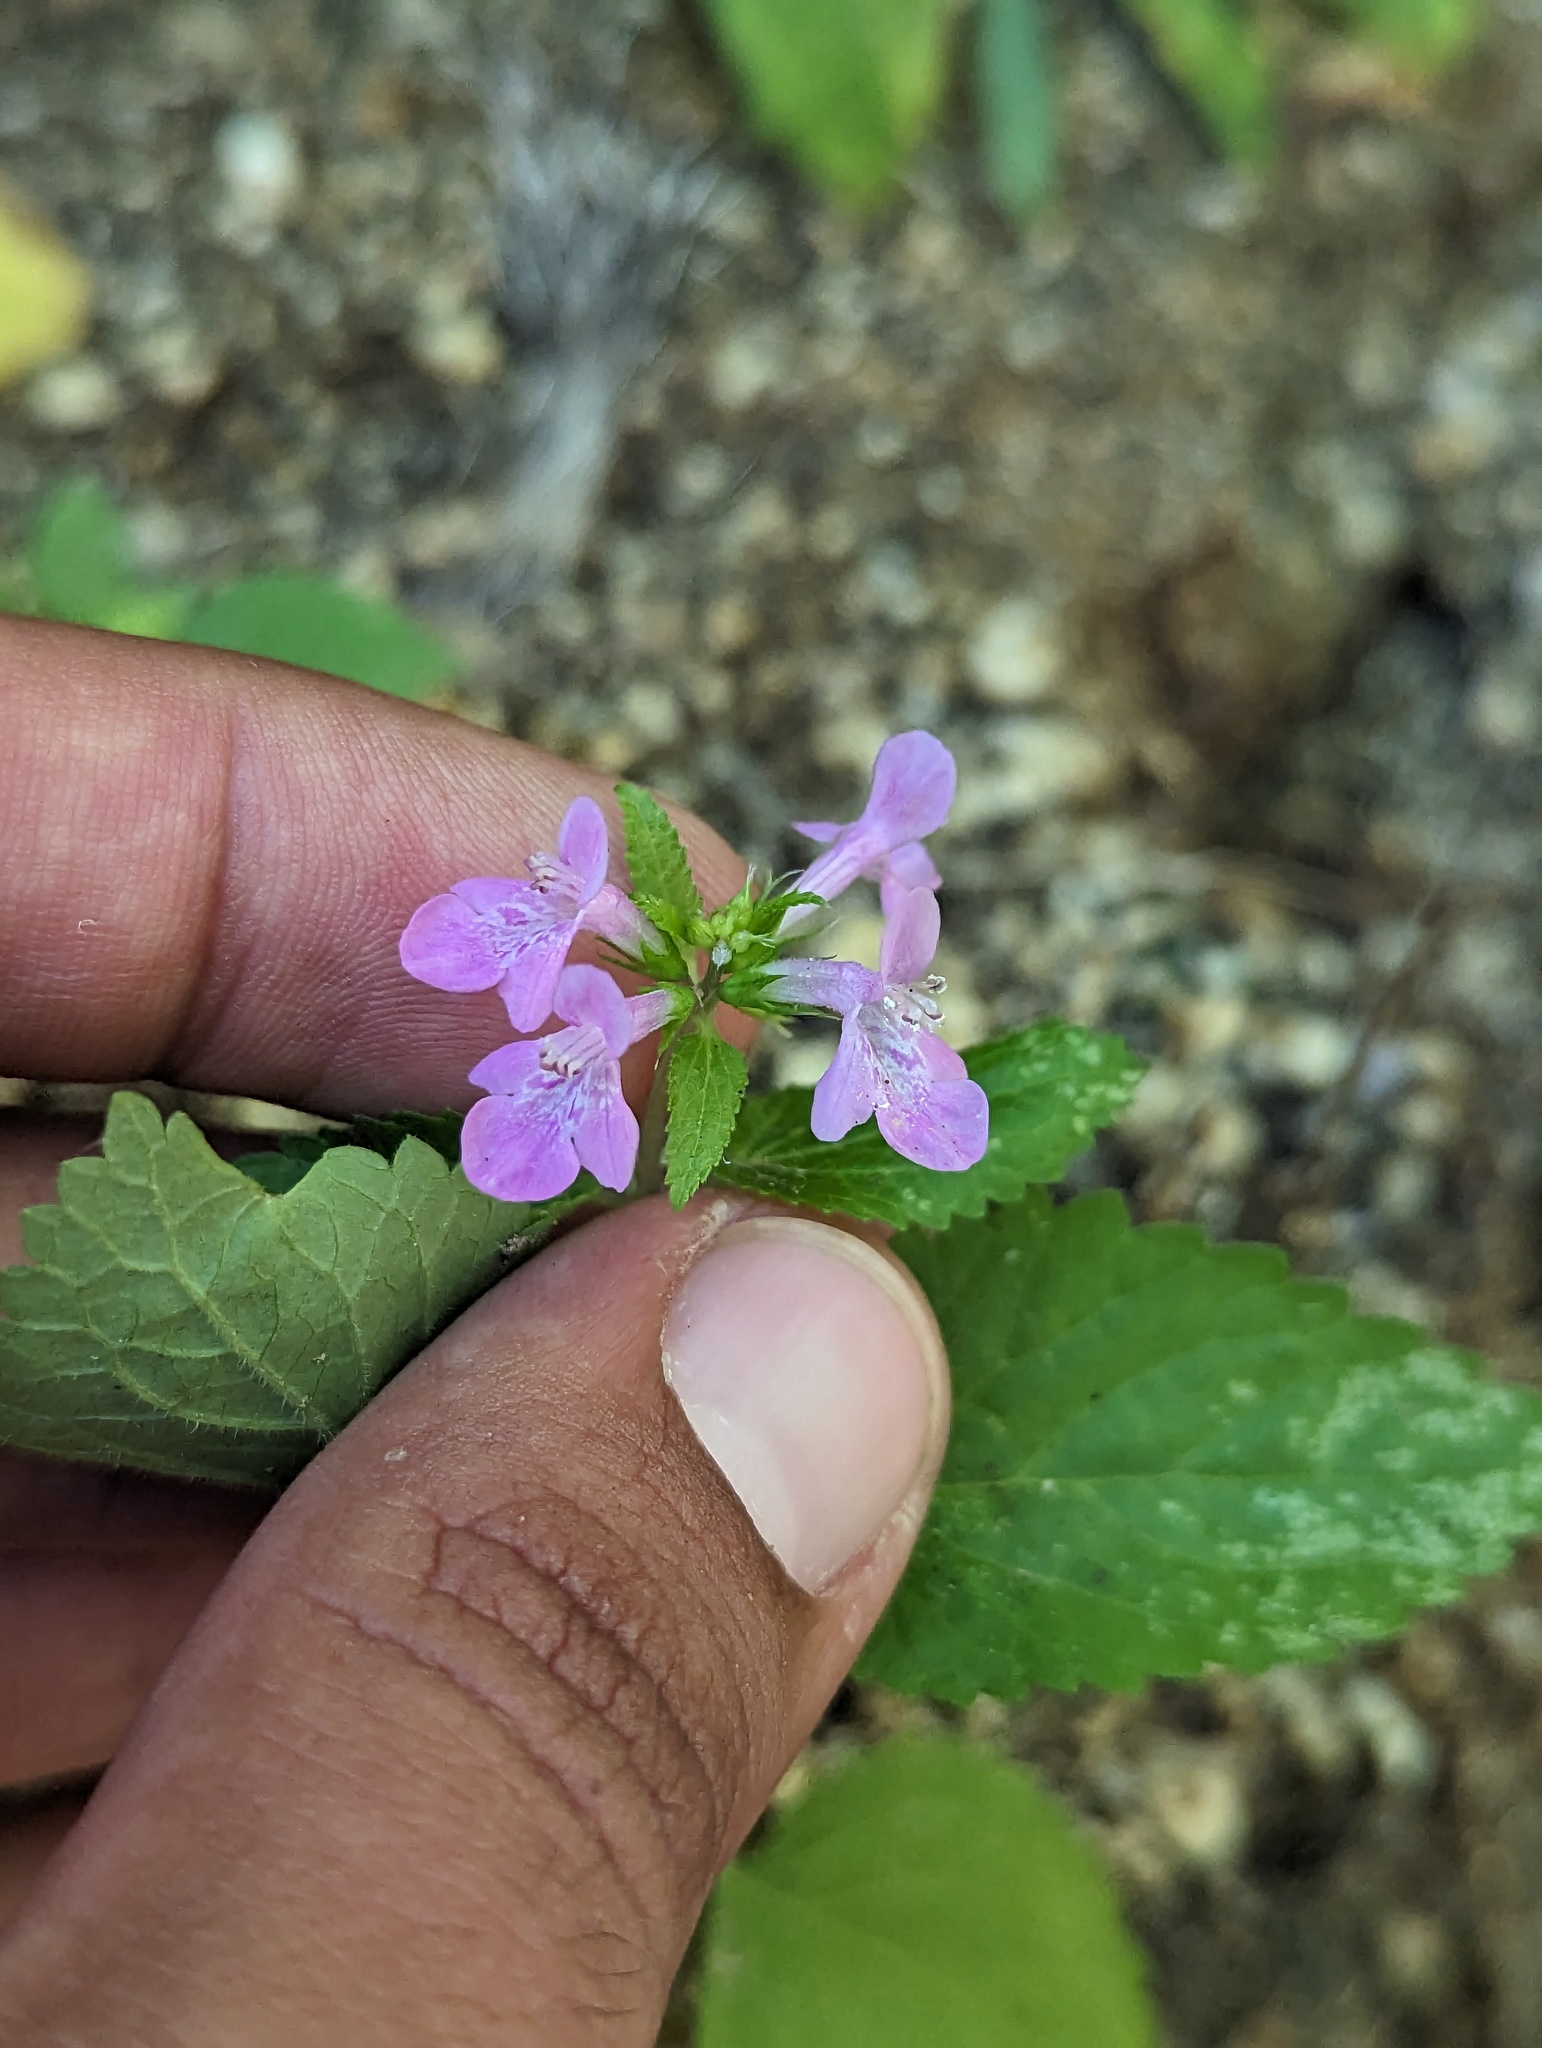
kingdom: Plantae
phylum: Tracheophyta
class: Magnoliopsida
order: Lamiales
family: Lamiaceae
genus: Stachys
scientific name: Stachys tenerrima
